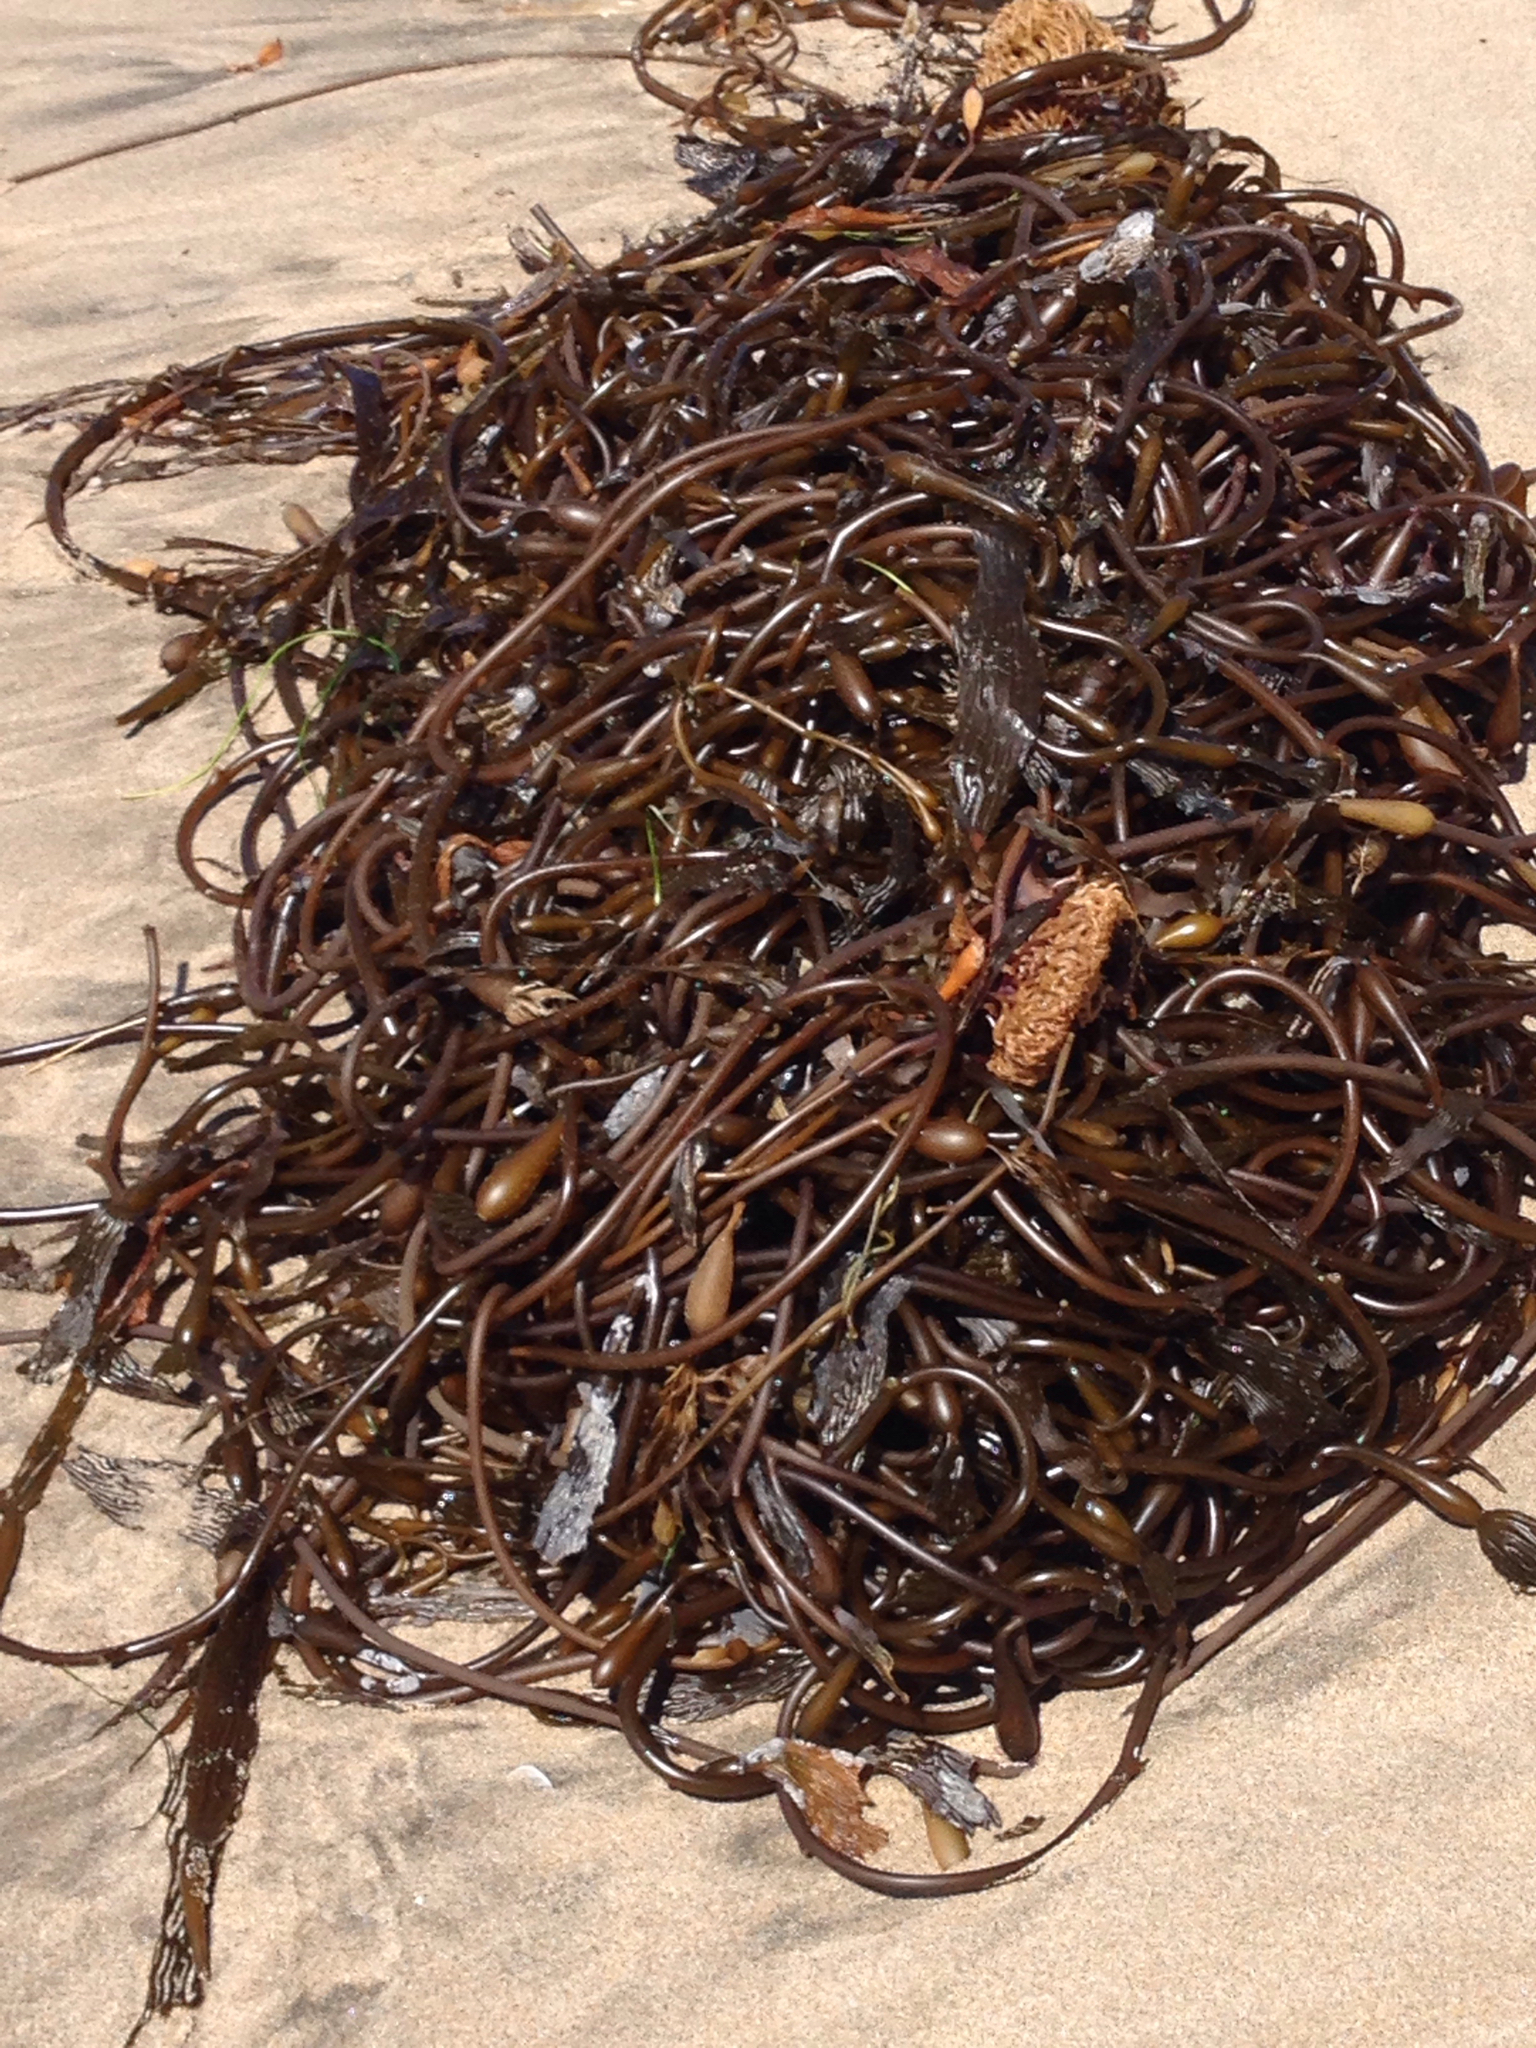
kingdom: Chromista
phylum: Ochrophyta
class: Phaeophyceae
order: Laminariales
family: Laminariaceae
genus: Macrocystis
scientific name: Macrocystis pyrifera
